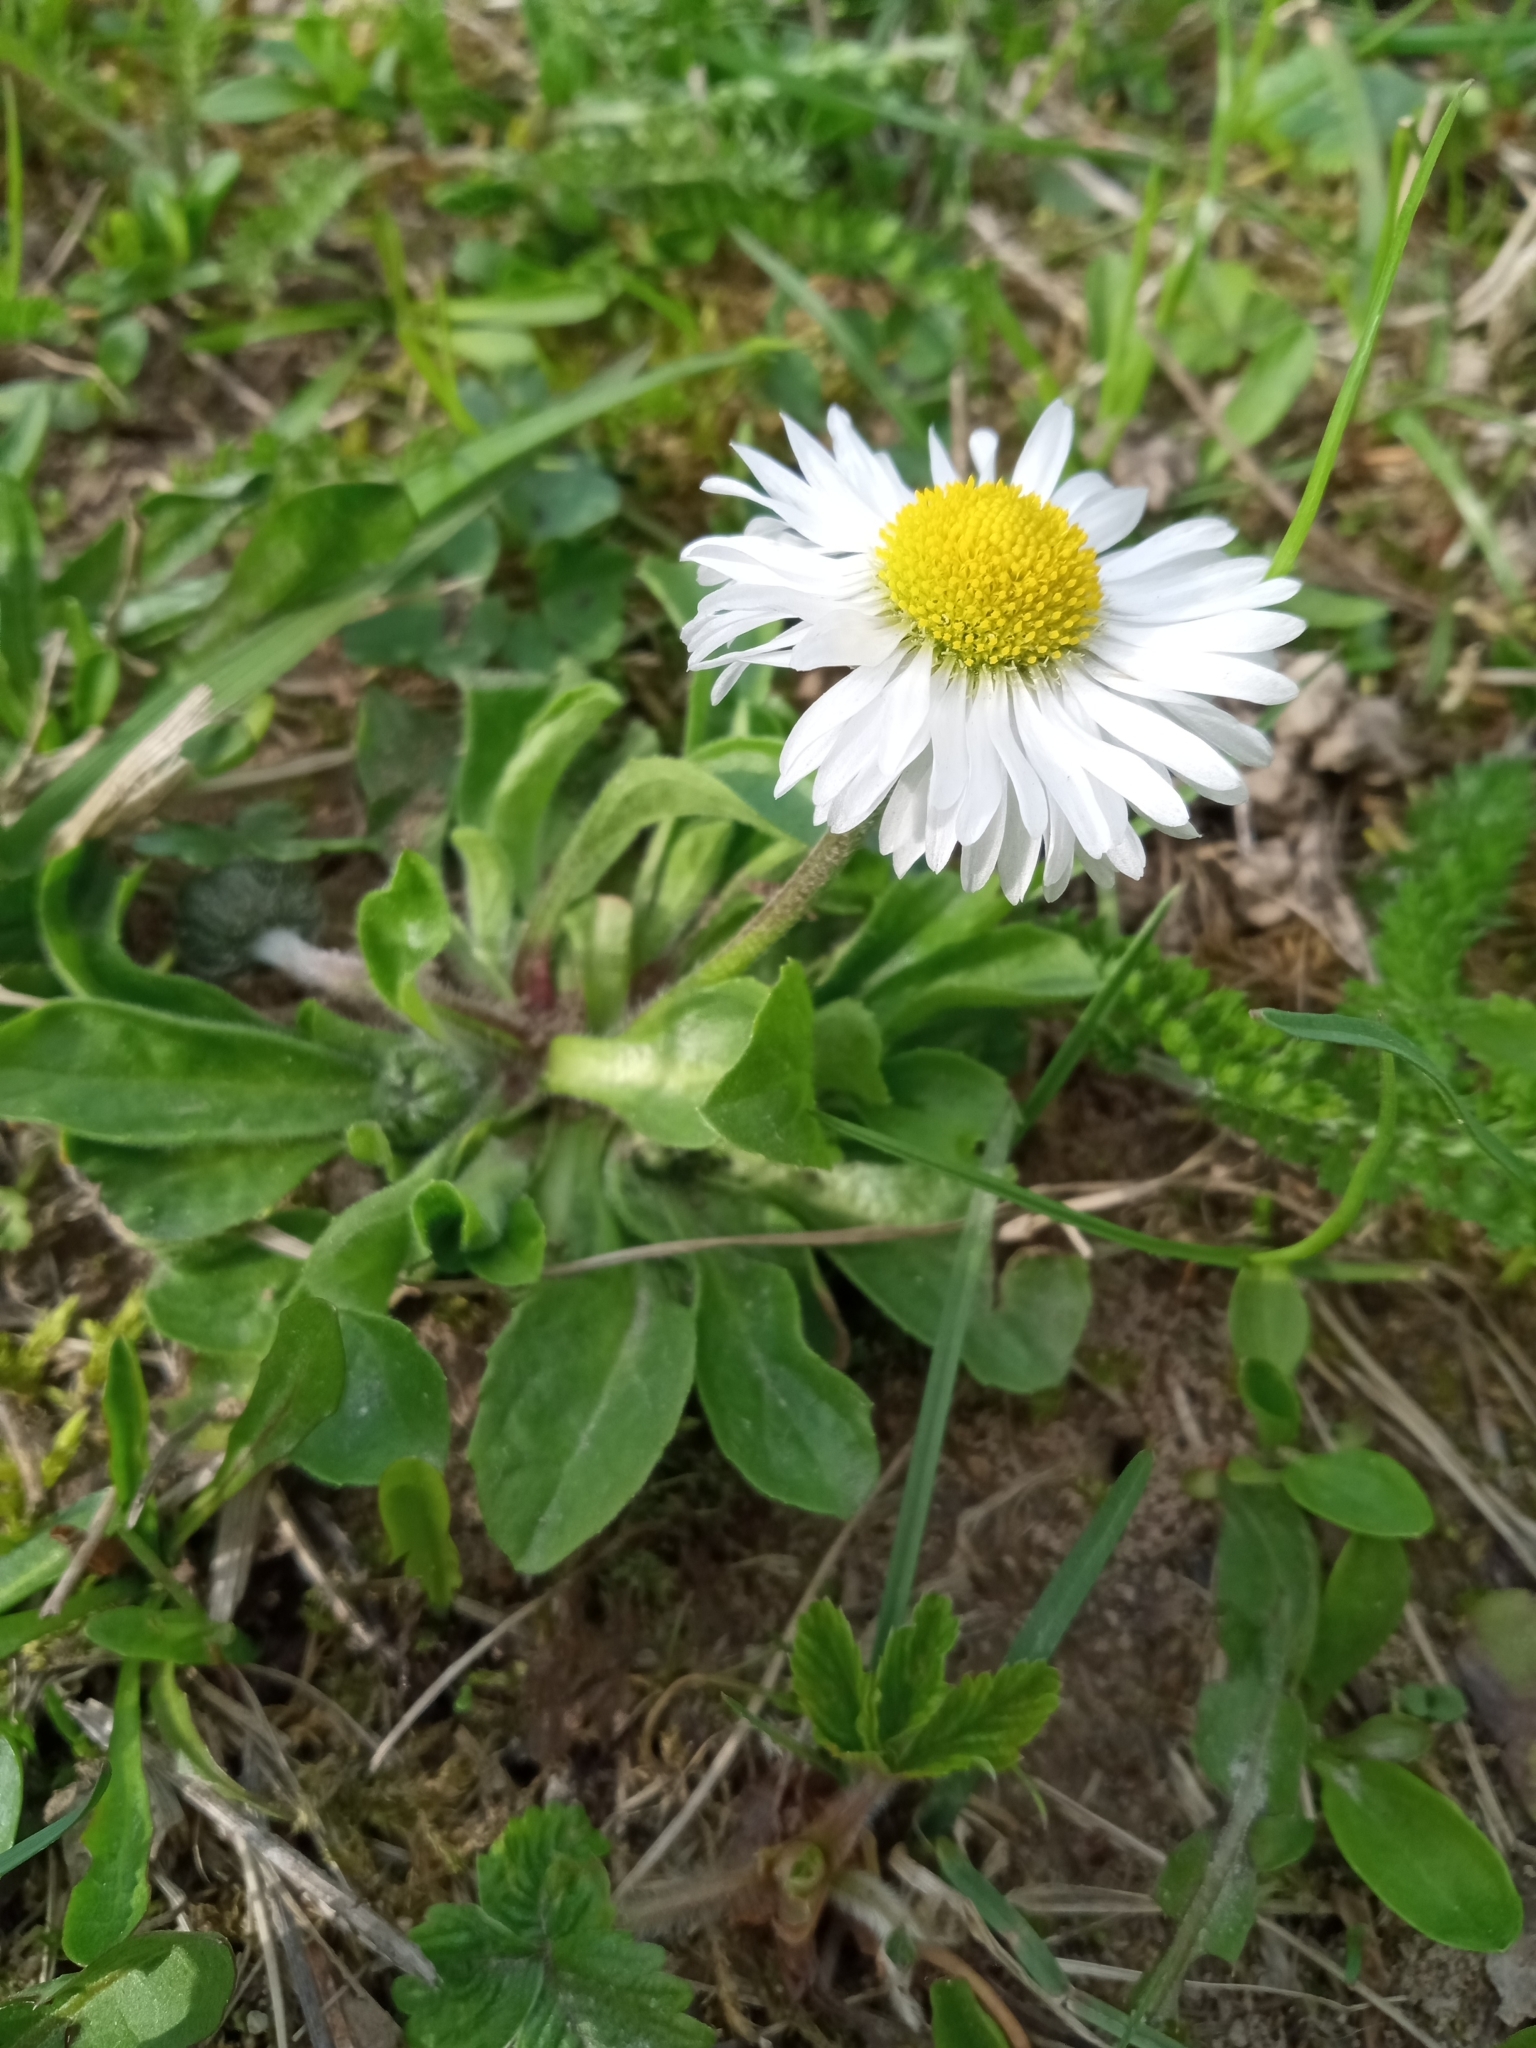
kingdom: Plantae
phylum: Tracheophyta
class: Magnoliopsida
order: Asterales
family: Asteraceae
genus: Bellis
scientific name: Bellis perennis
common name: Lawndaisy
